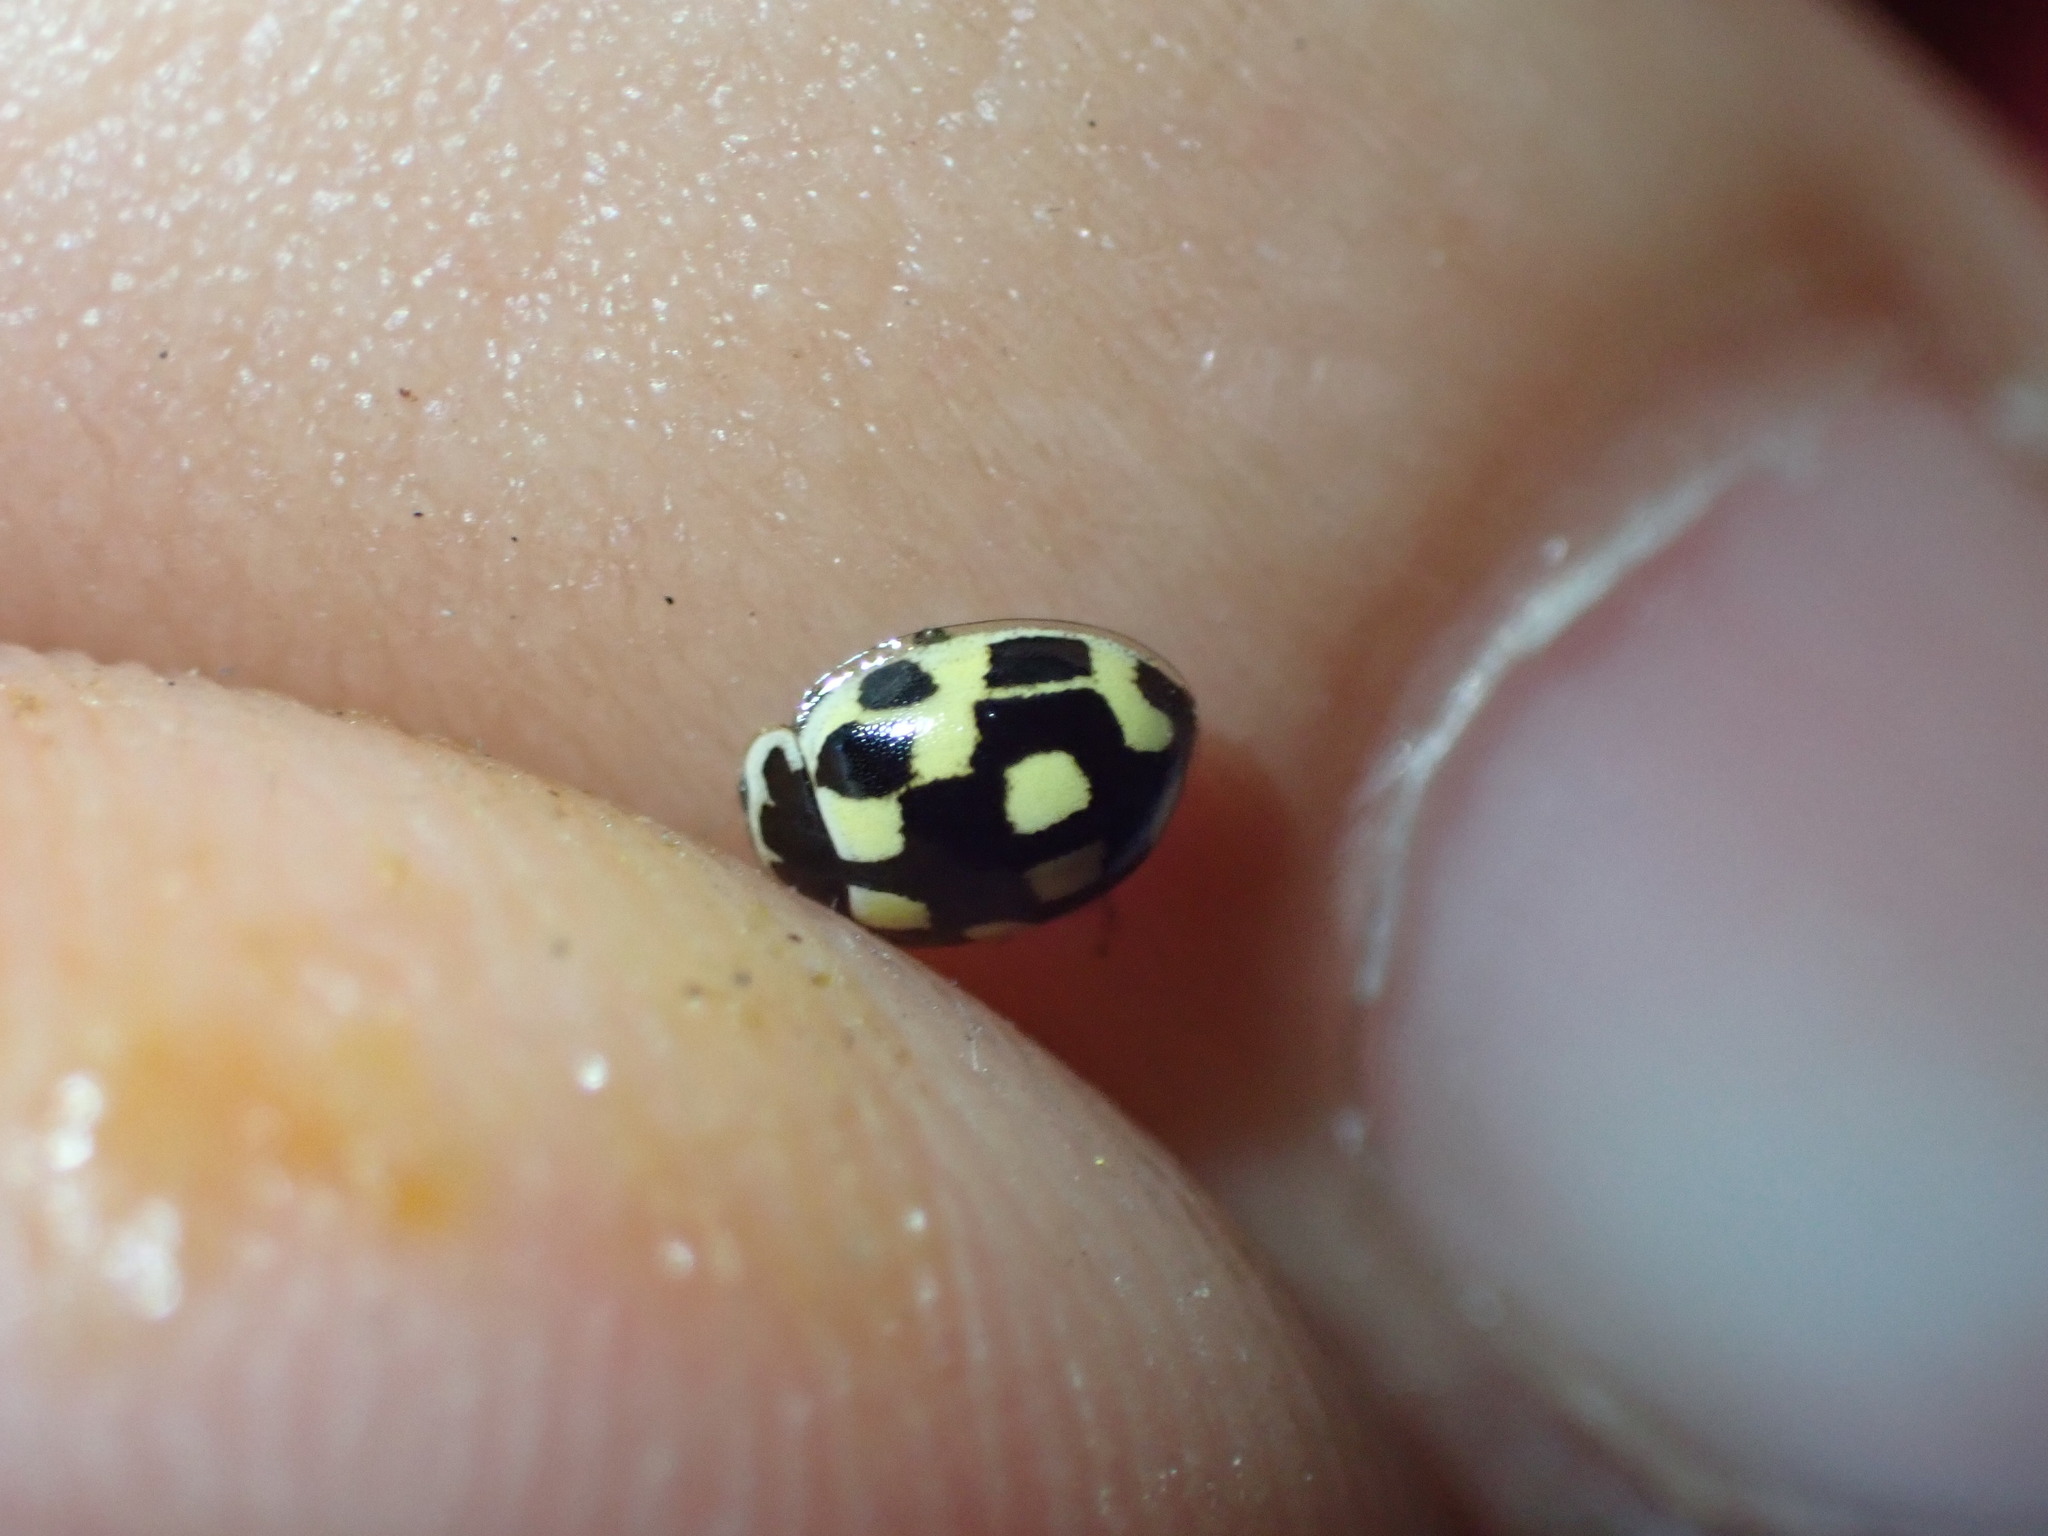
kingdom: Animalia
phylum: Arthropoda
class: Insecta
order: Coleoptera
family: Coccinellidae
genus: Propylaea
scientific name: Propylaea quatuordecimpunctata
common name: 14-spotted ladybird beetle
